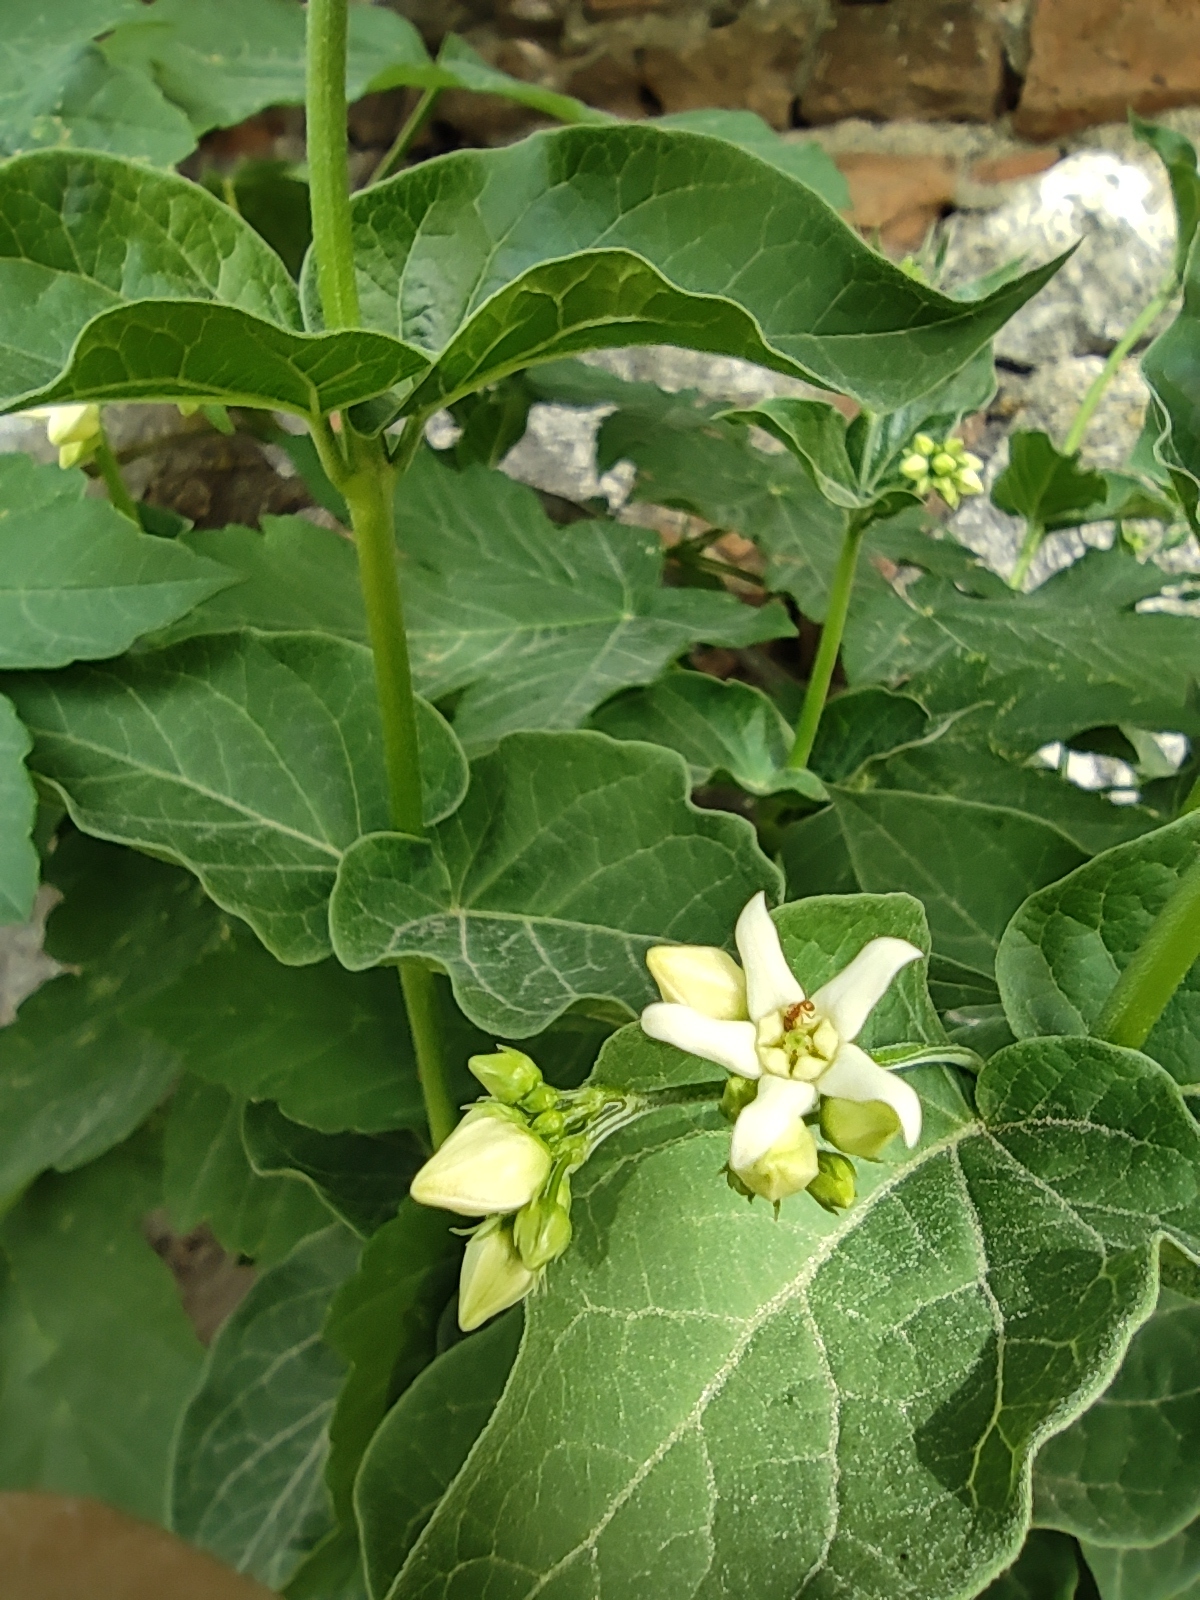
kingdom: Plantae
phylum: Tracheophyta
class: Magnoliopsida
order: Gentianales
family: Apocynaceae
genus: Vincetoxicum
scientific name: Vincetoxicum hirundinaria
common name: White swallowwort
